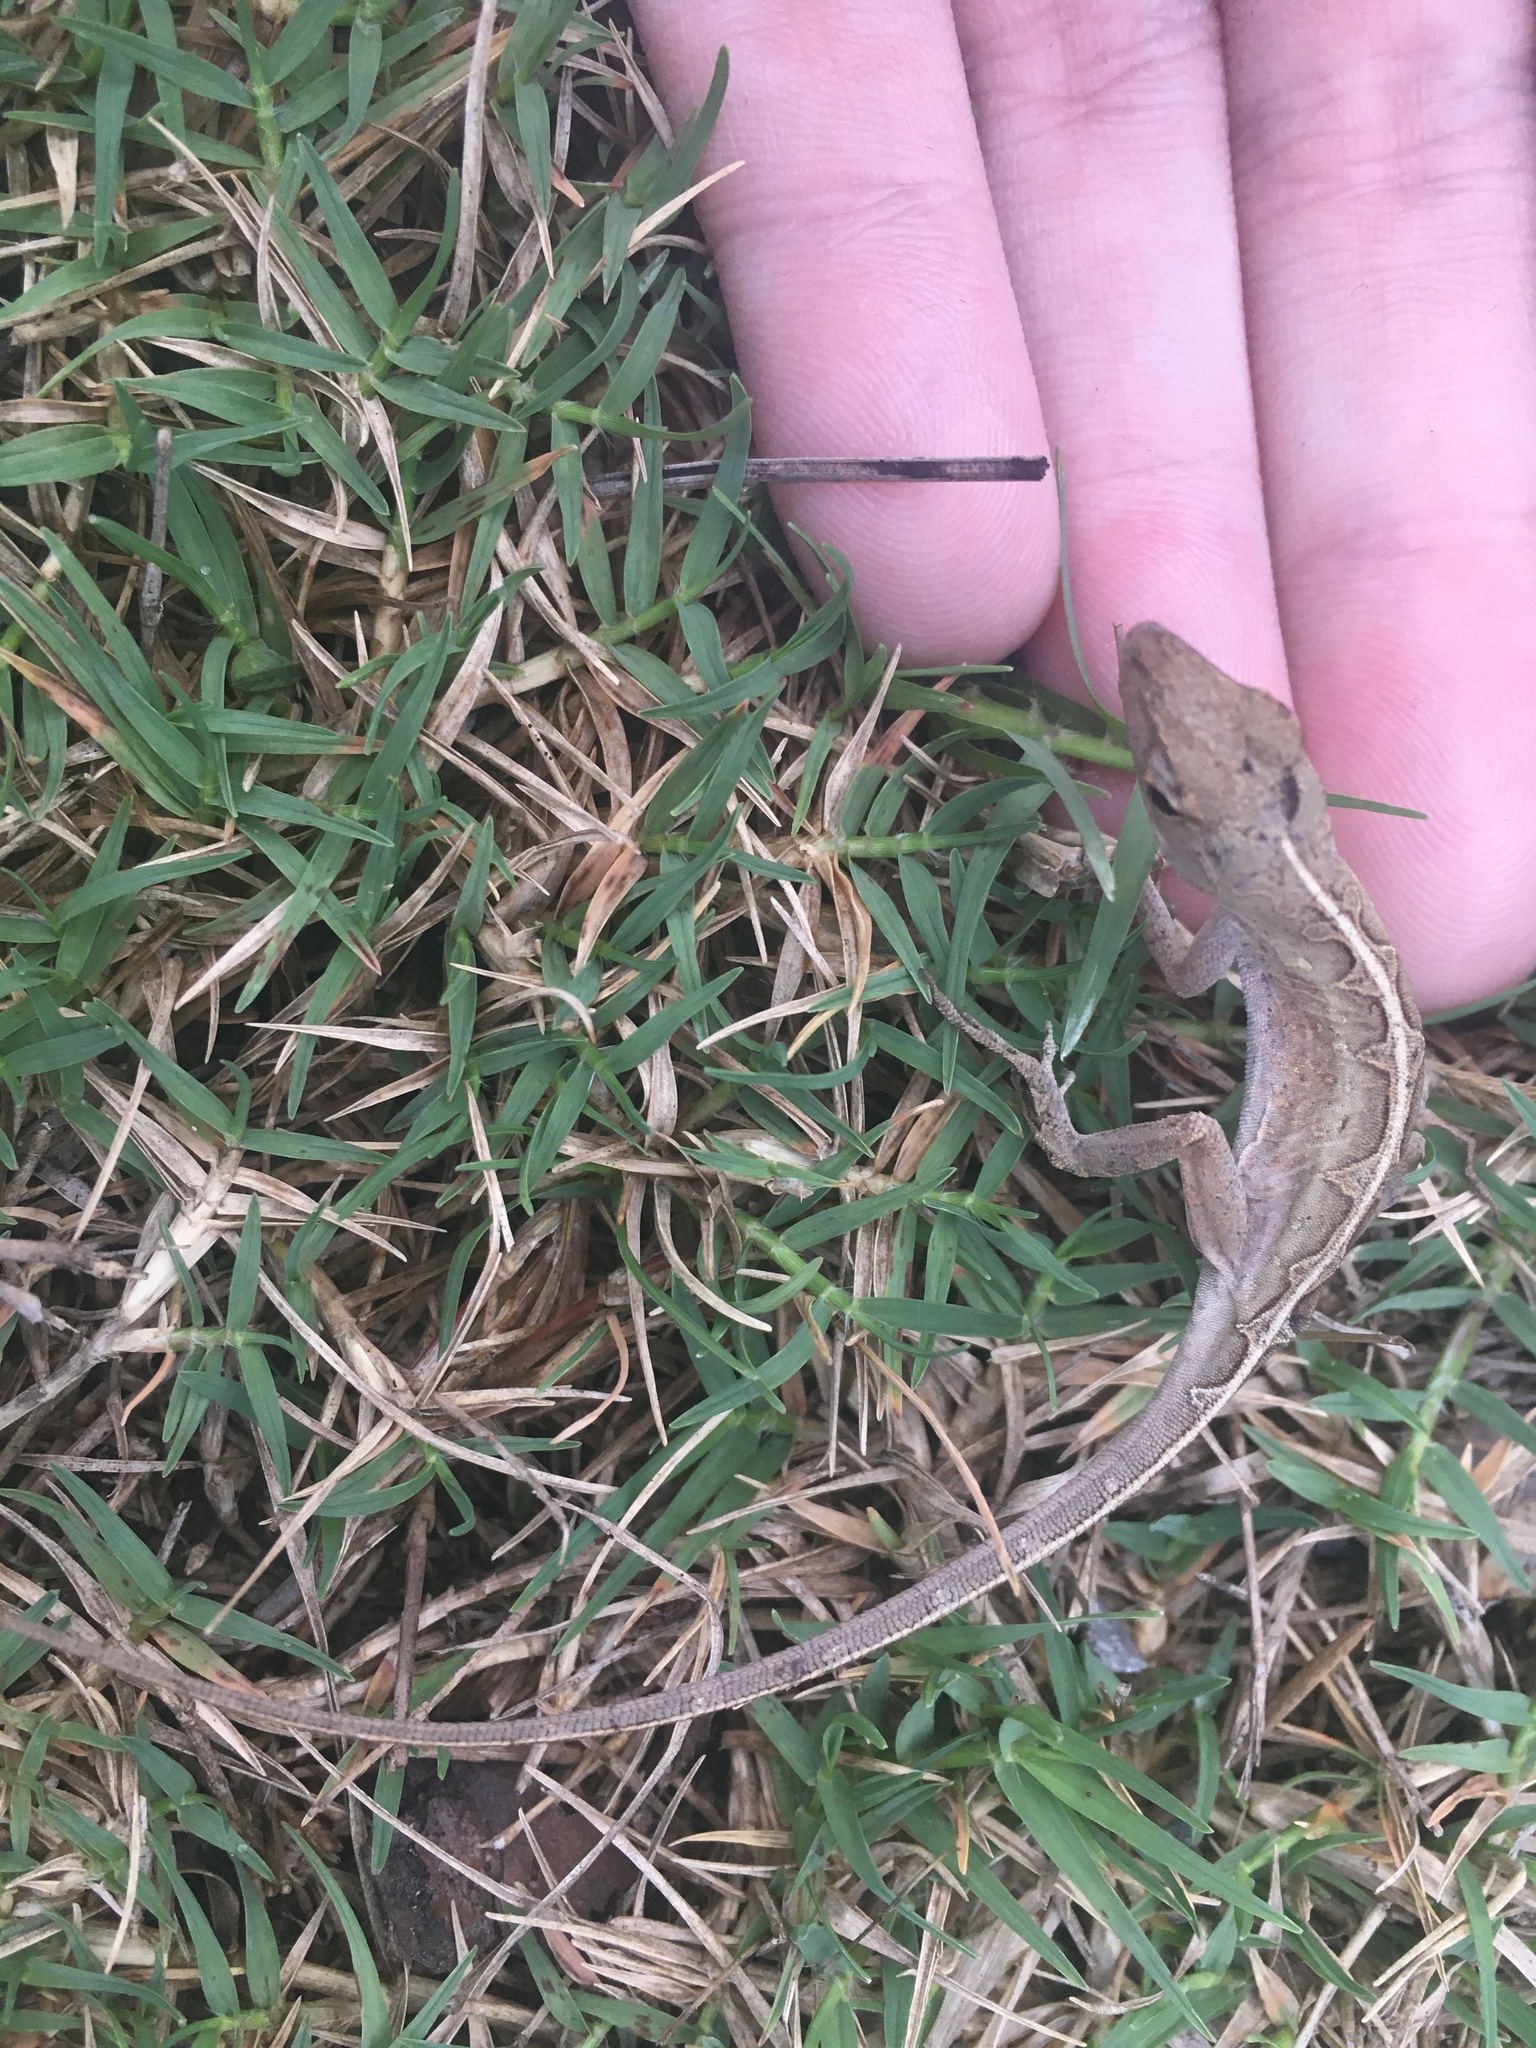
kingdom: Animalia
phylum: Chordata
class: Squamata
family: Dactyloidae
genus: Anolis
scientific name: Anolis sagrei
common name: Brown anole
